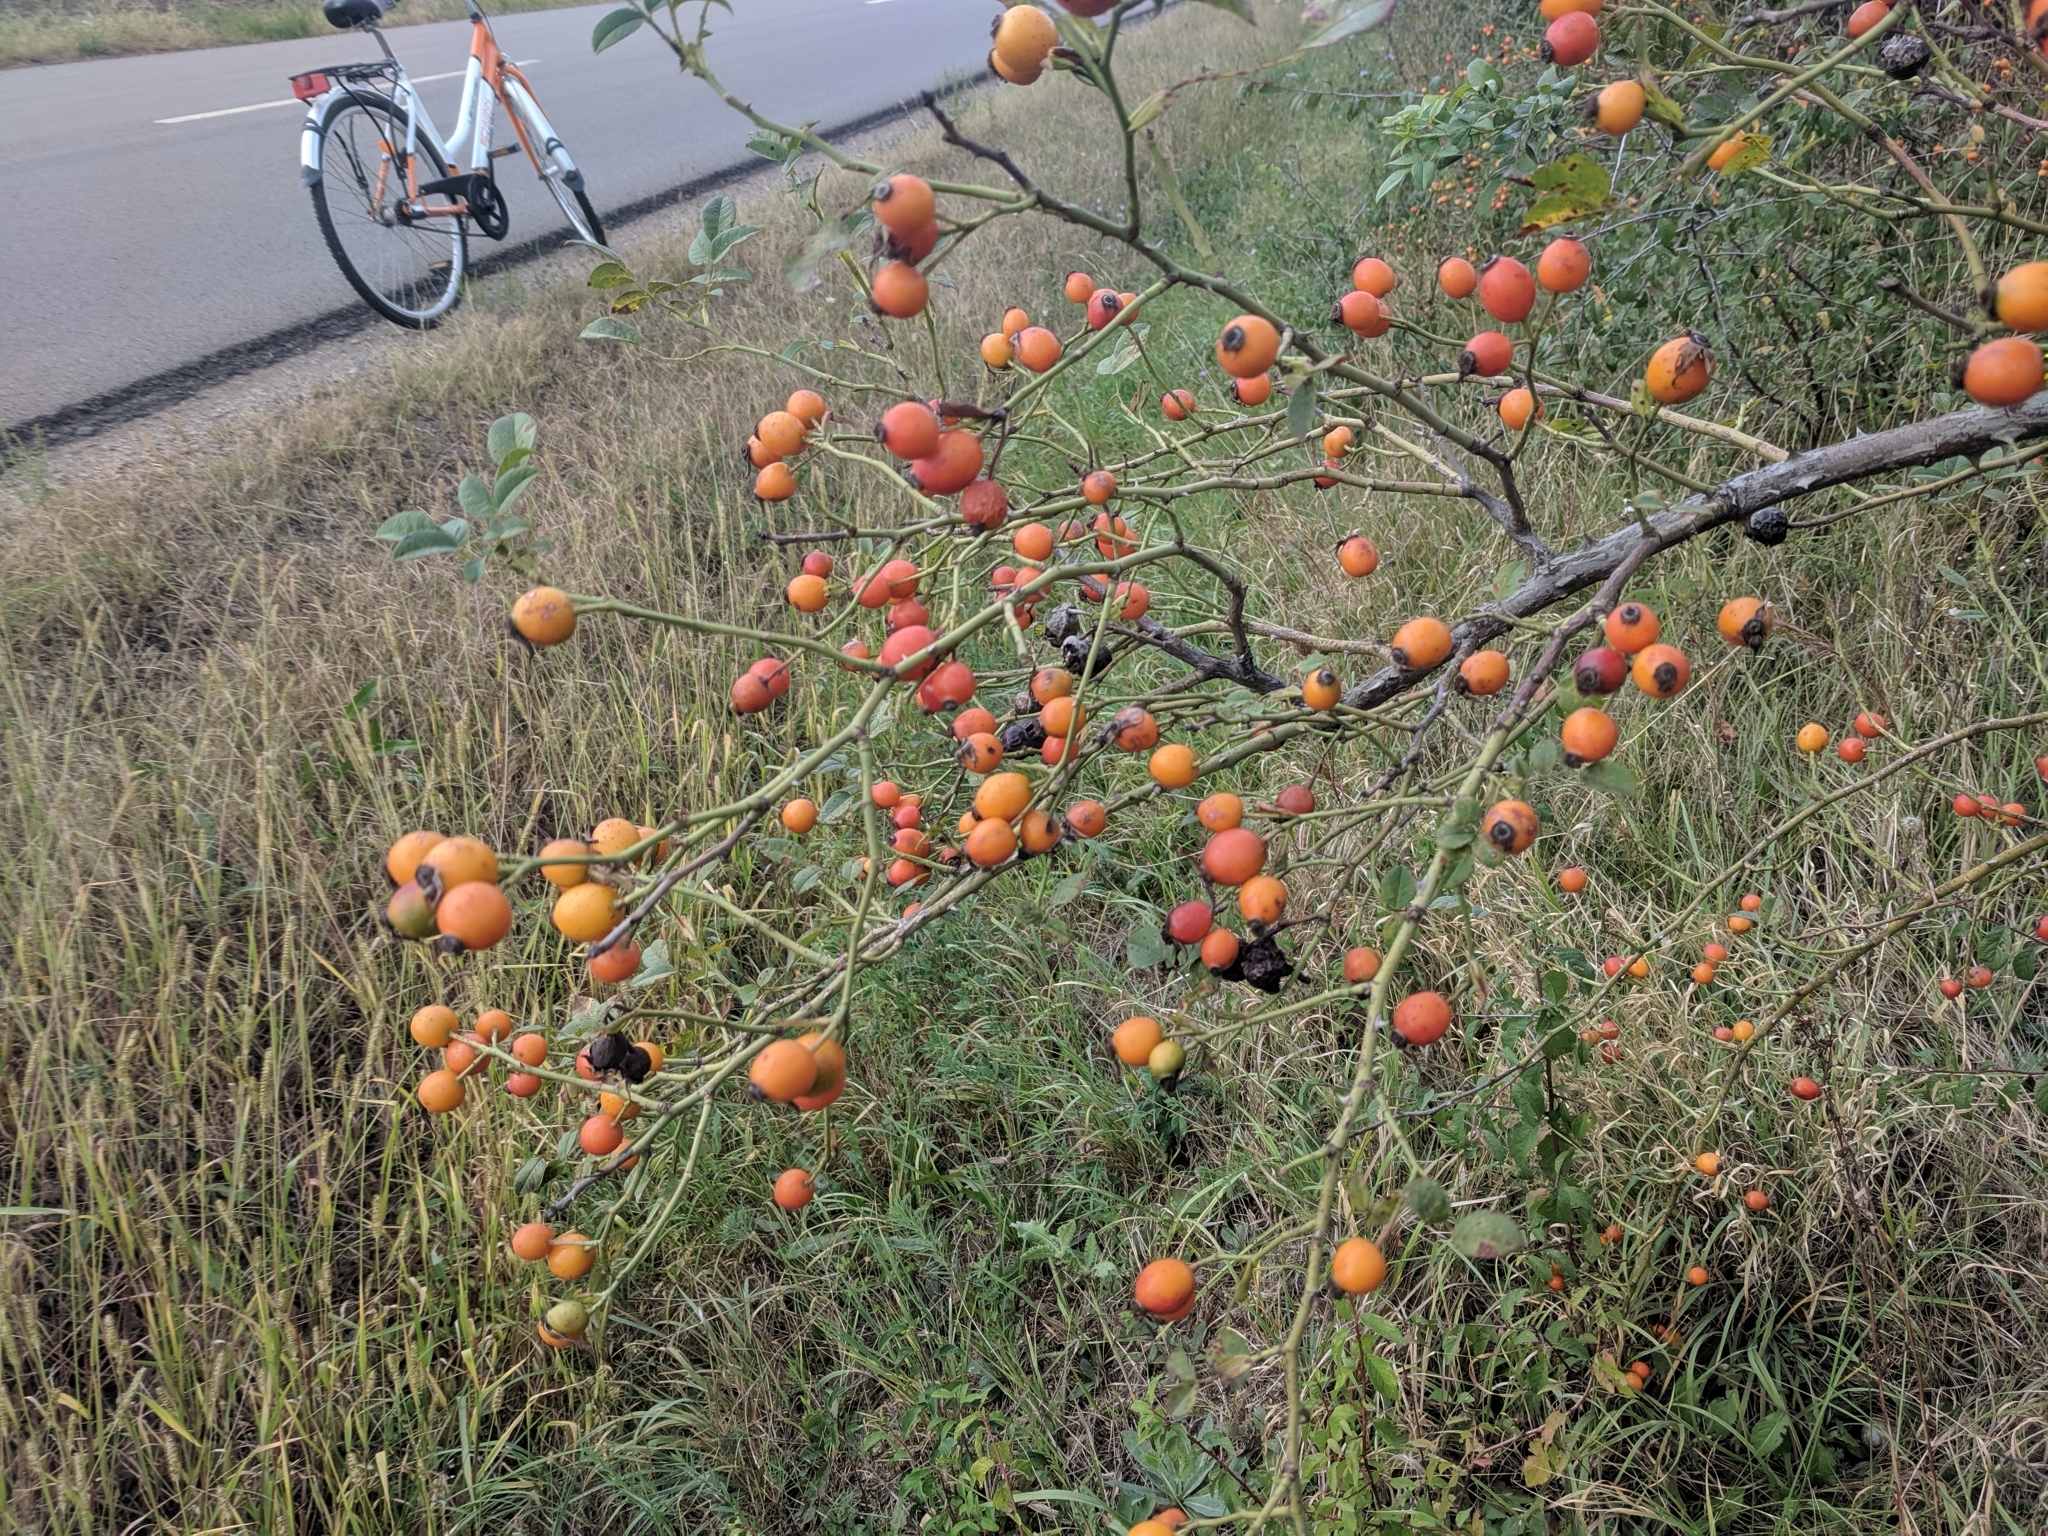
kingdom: Plantae
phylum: Tracheophyta
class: Magnoliopsida
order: Rosales
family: Rosaceae
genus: Rosa
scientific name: Rosa canina
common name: Dog rose
